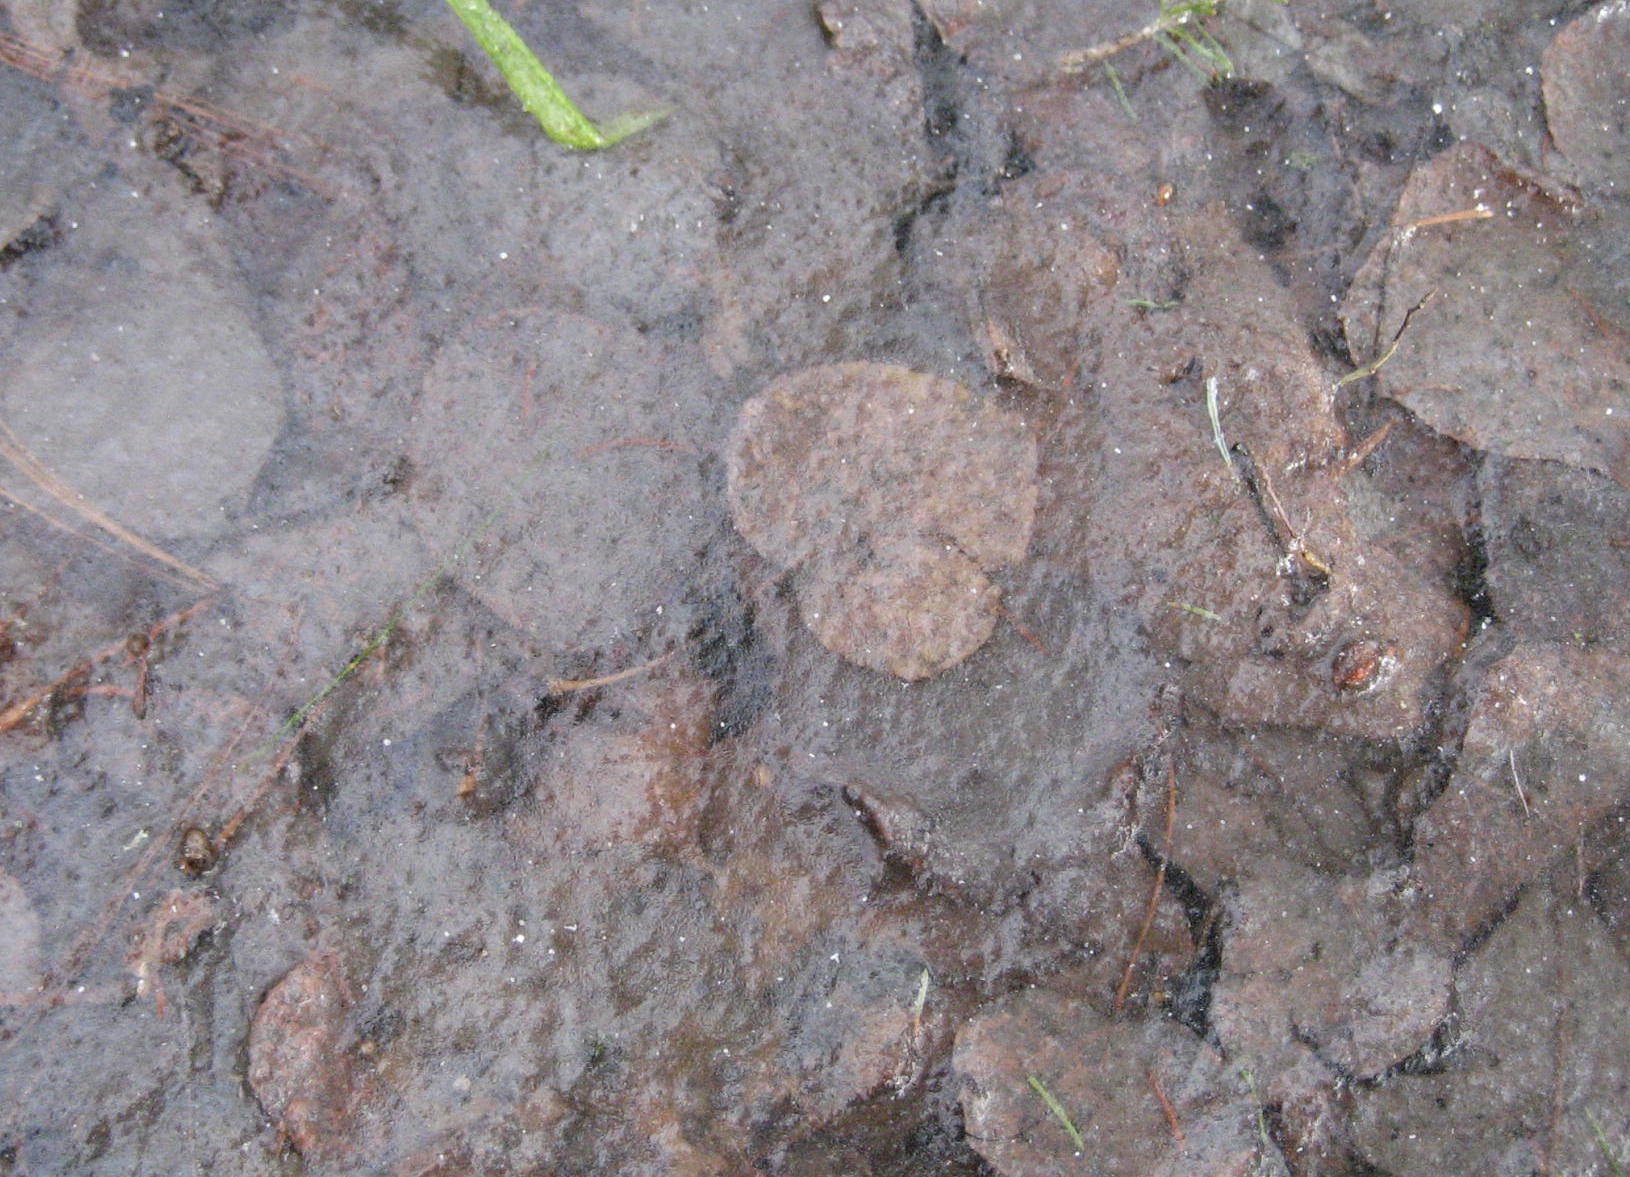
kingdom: Plantae
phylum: Tracheophyta
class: Magnoliopsida
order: Malpighiales
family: Salicaceae
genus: Populus
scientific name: Populus tremuloides
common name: Quaking aspen
